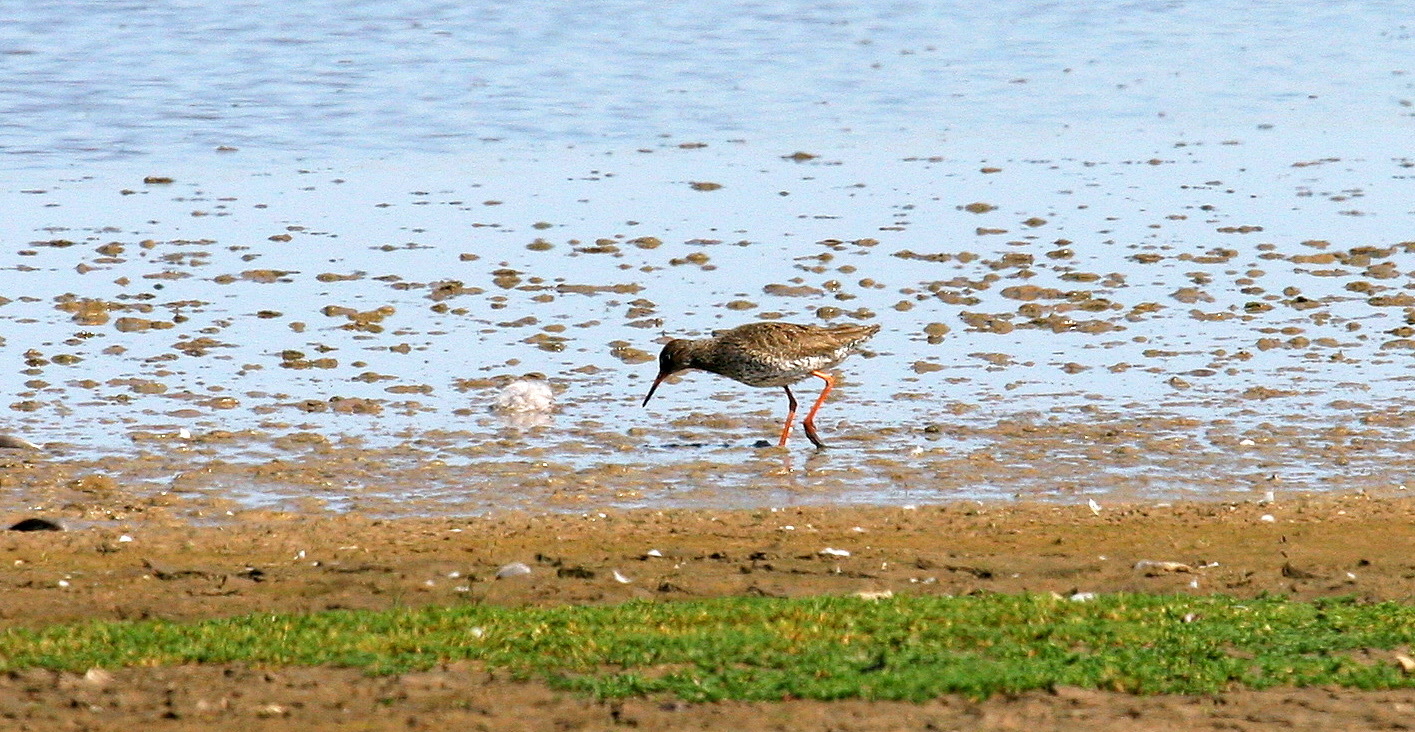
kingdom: Animalia
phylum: Chordata
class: Aves
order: Charadriiformes
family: Scolopacidae
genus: Tringa
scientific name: Tringa totanus
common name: Common redshank
